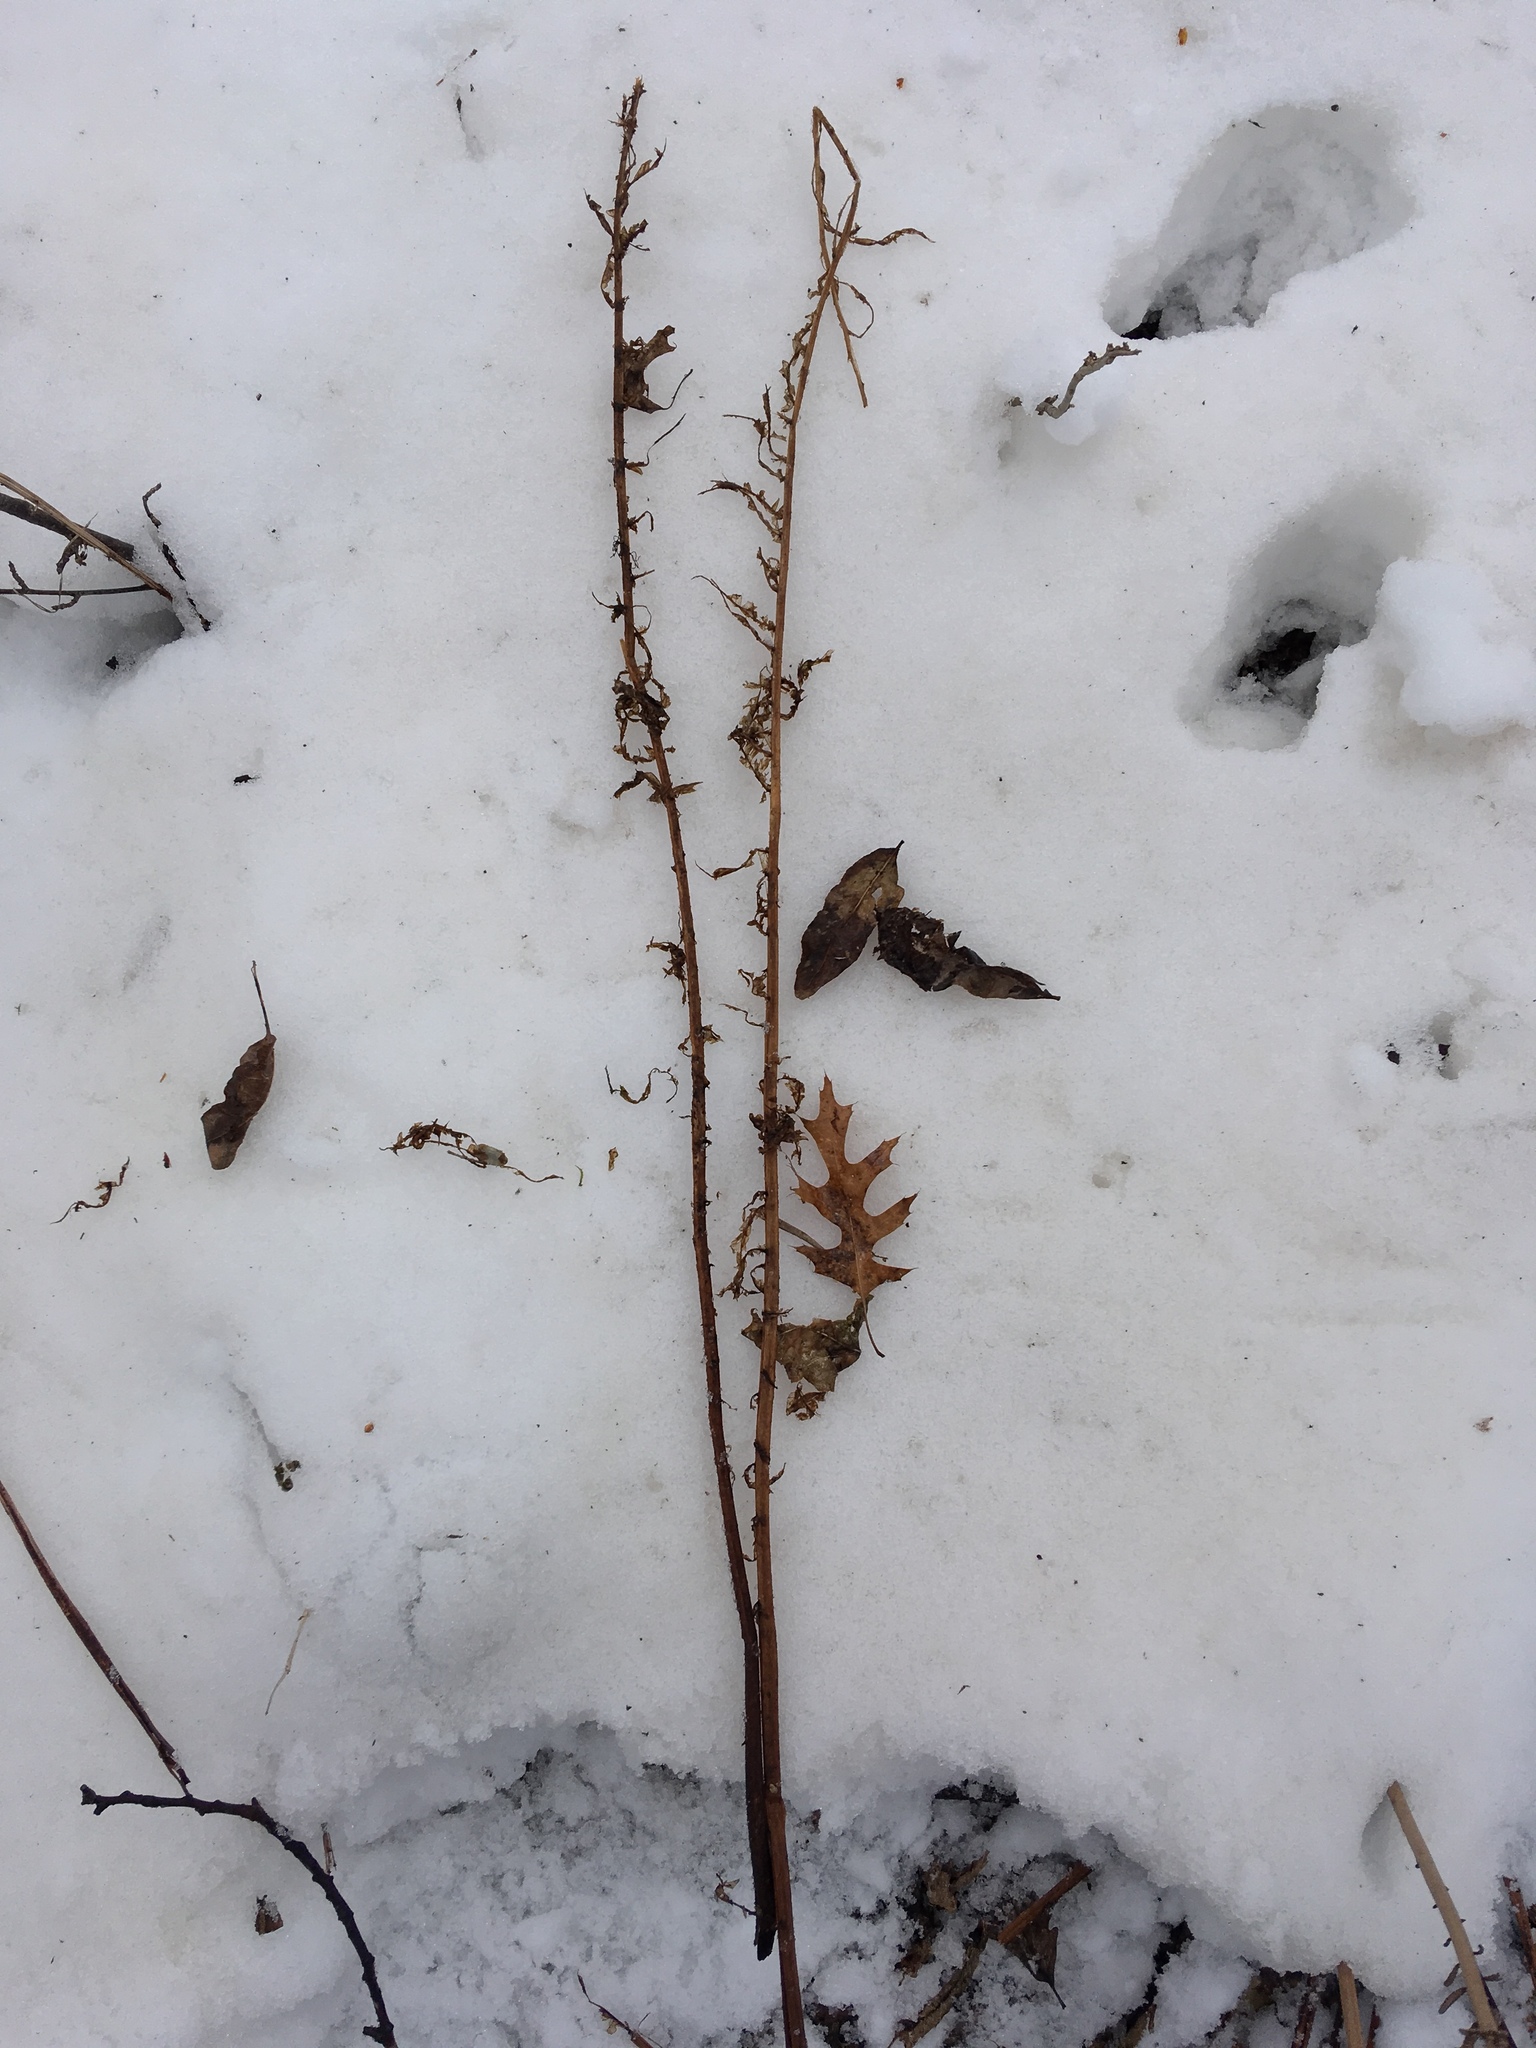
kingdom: Plantae
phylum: Tracheophyta
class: Polypodiopsida
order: Polypodiales
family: Onocleaceae
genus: Matteuccia
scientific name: Matteuccia struthiopteris
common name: Ostrich fern
